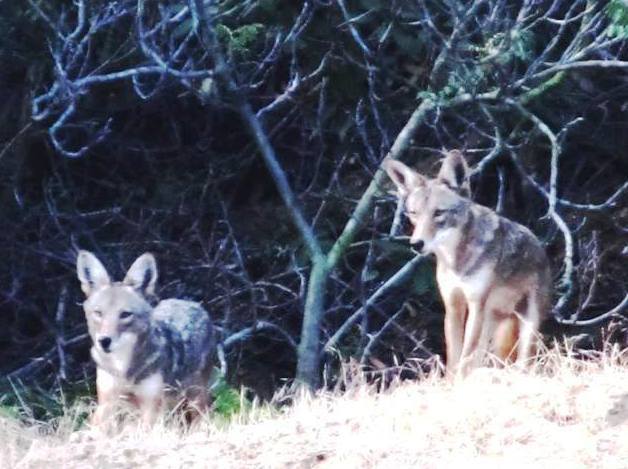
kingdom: Animalia
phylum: Chordata
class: Mammalia
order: Carnivora
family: Canidae
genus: Canis
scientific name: Canis latrans
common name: Coyote
